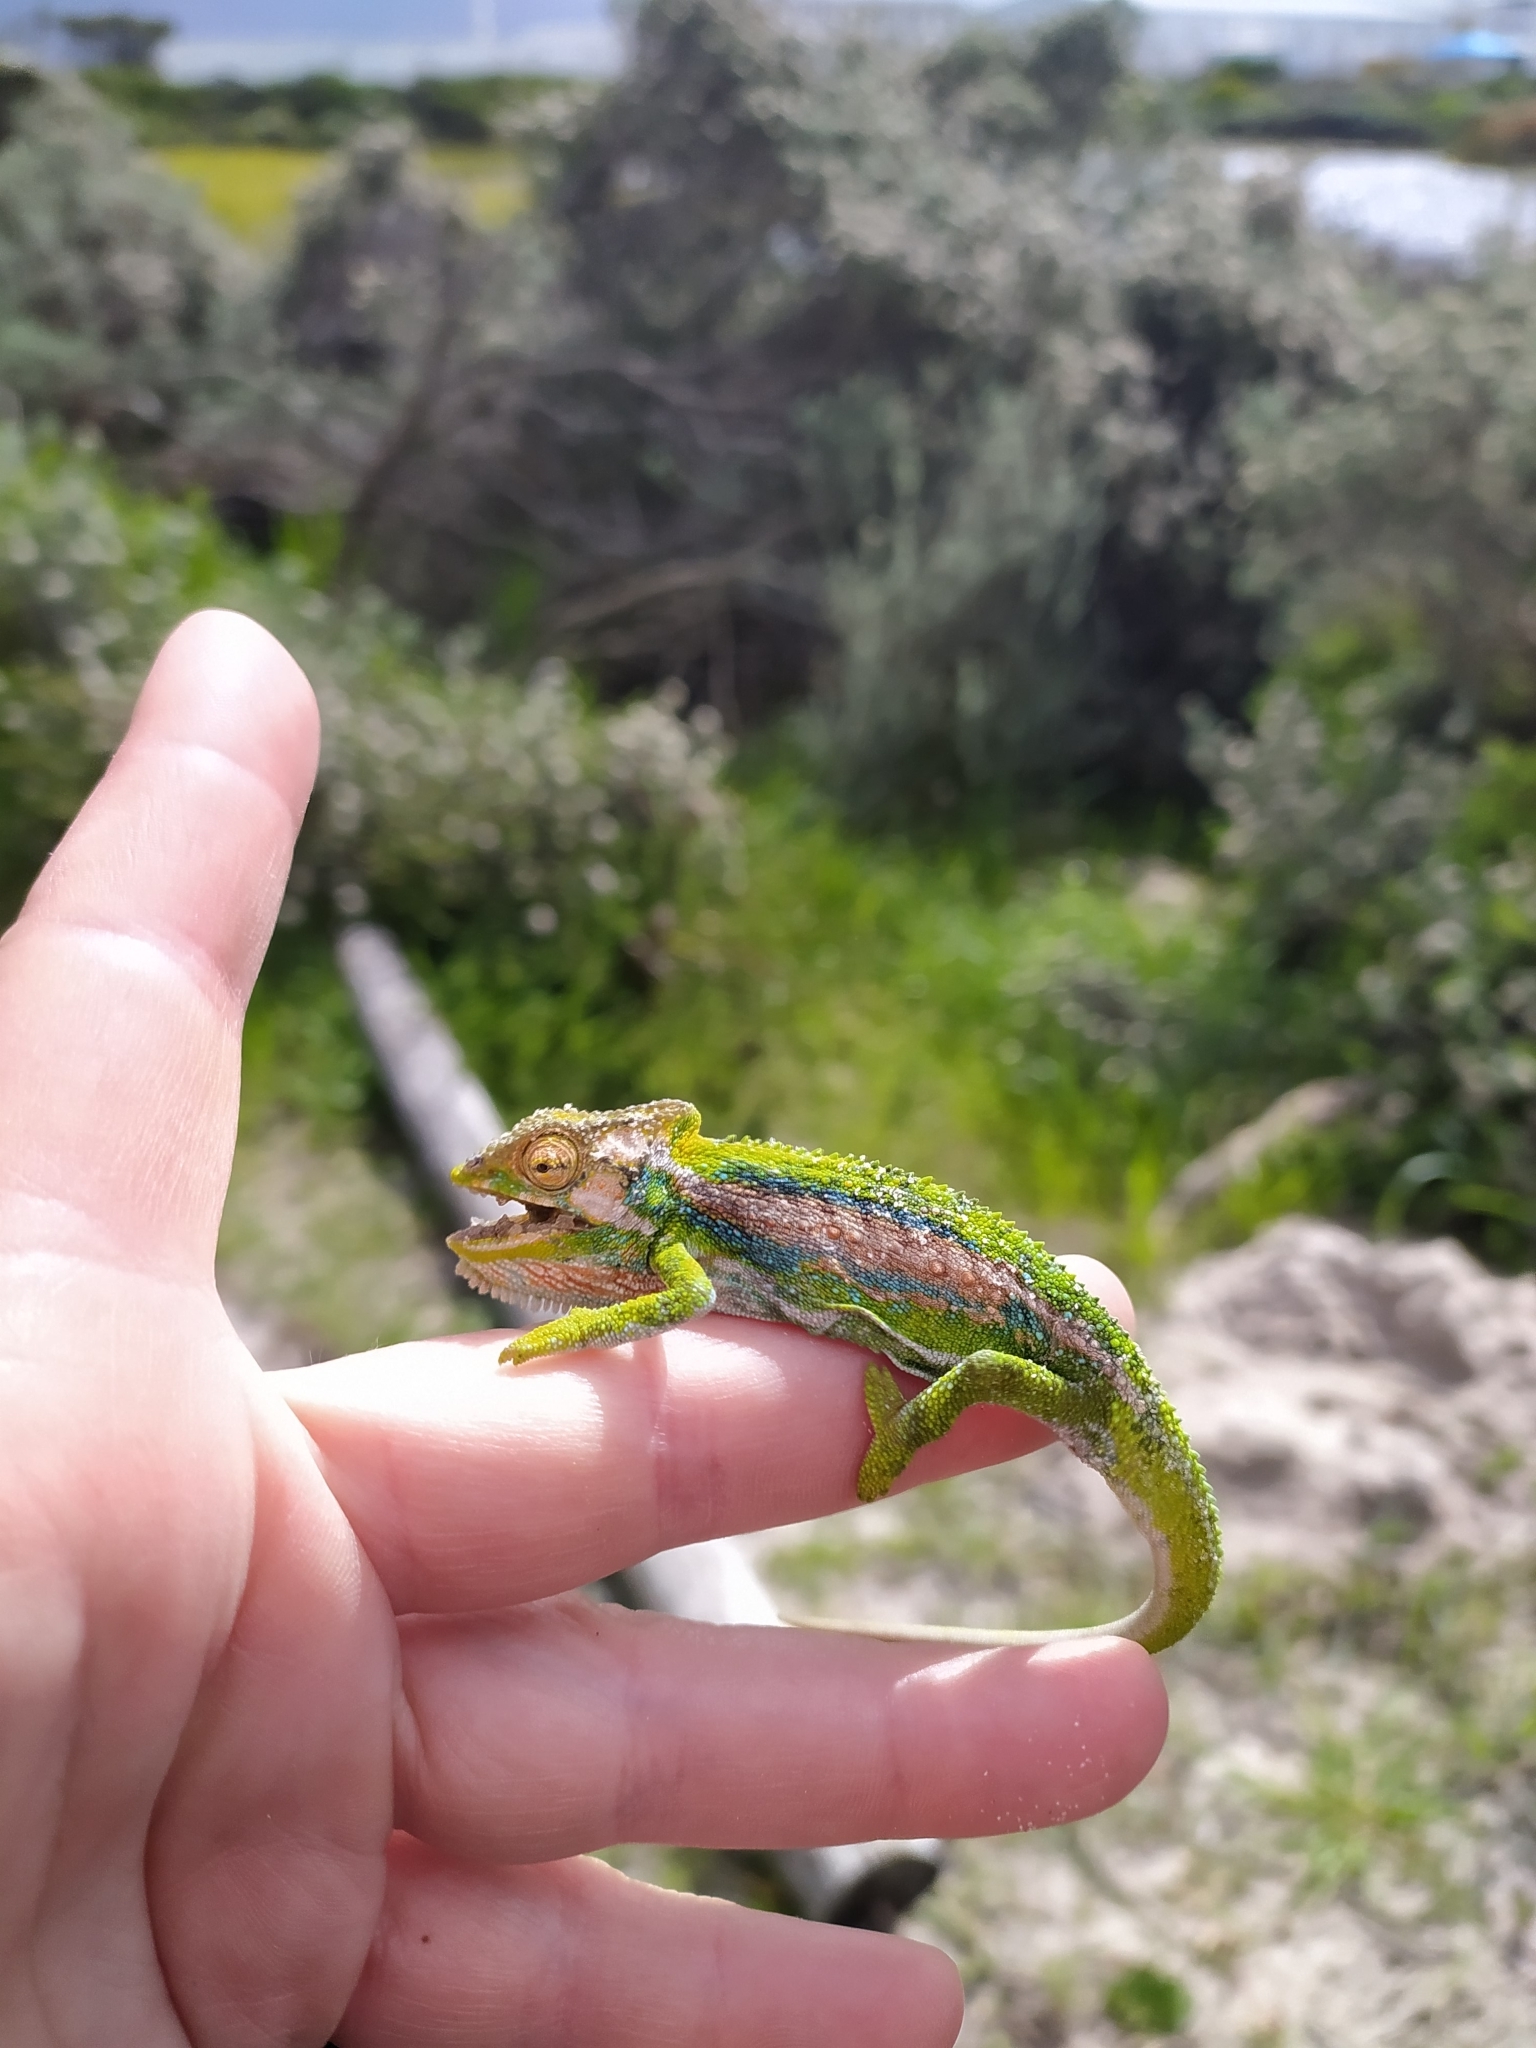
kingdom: Animalia
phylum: Chordata
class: Squamata
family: Chamaeleonidae
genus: Bradypodion
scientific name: Bradypodion pumilum
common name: Cape dwarf chameleon
